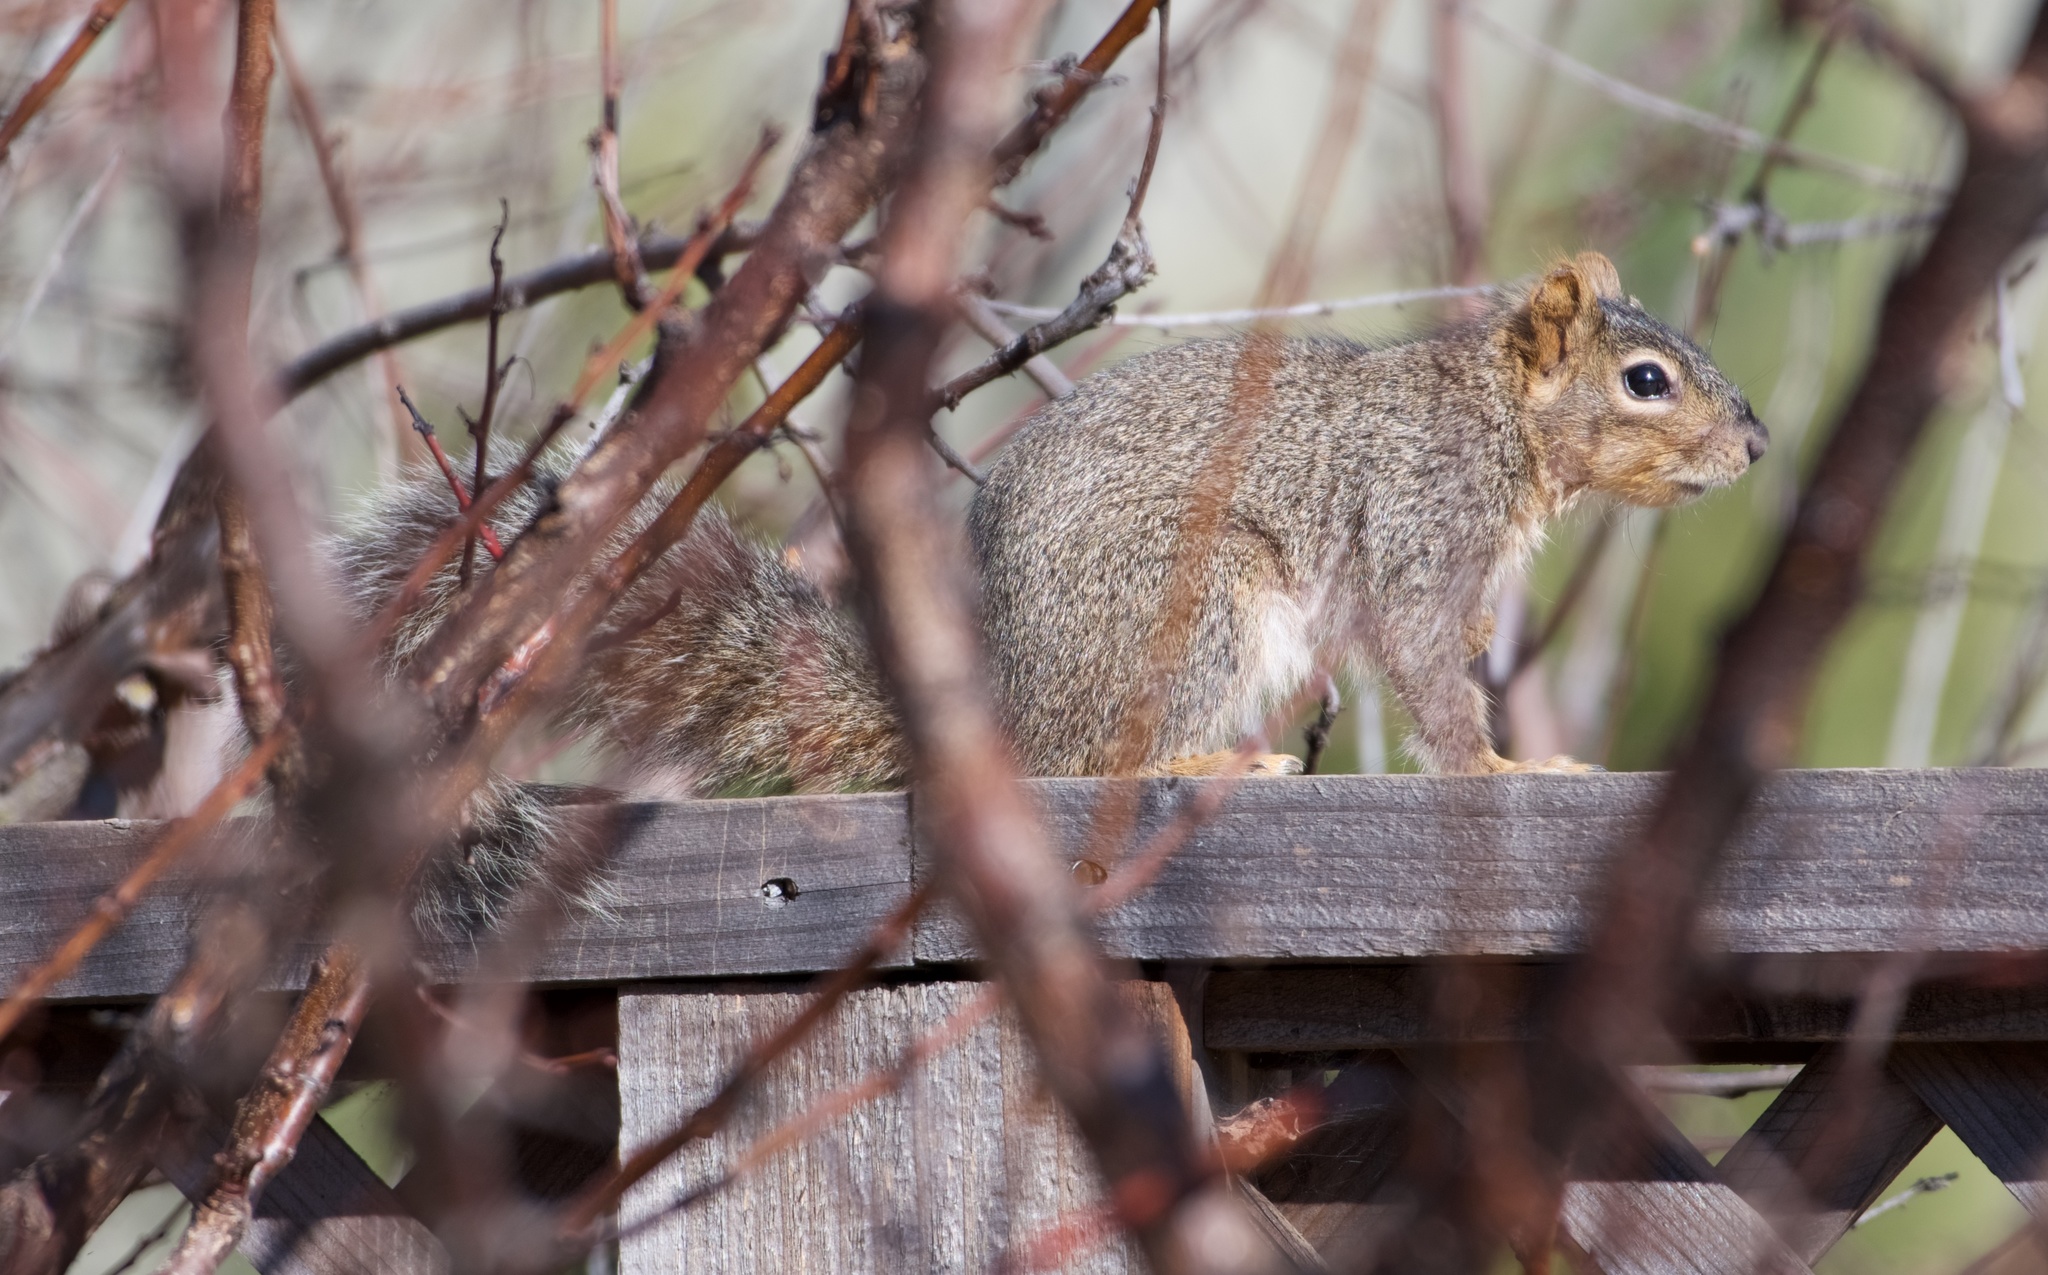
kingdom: Animalia
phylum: Chordata
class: Mammalia
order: Rodentia
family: Sciuridae
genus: Sciurus
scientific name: Sciurus niger
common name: Fox squirrel
